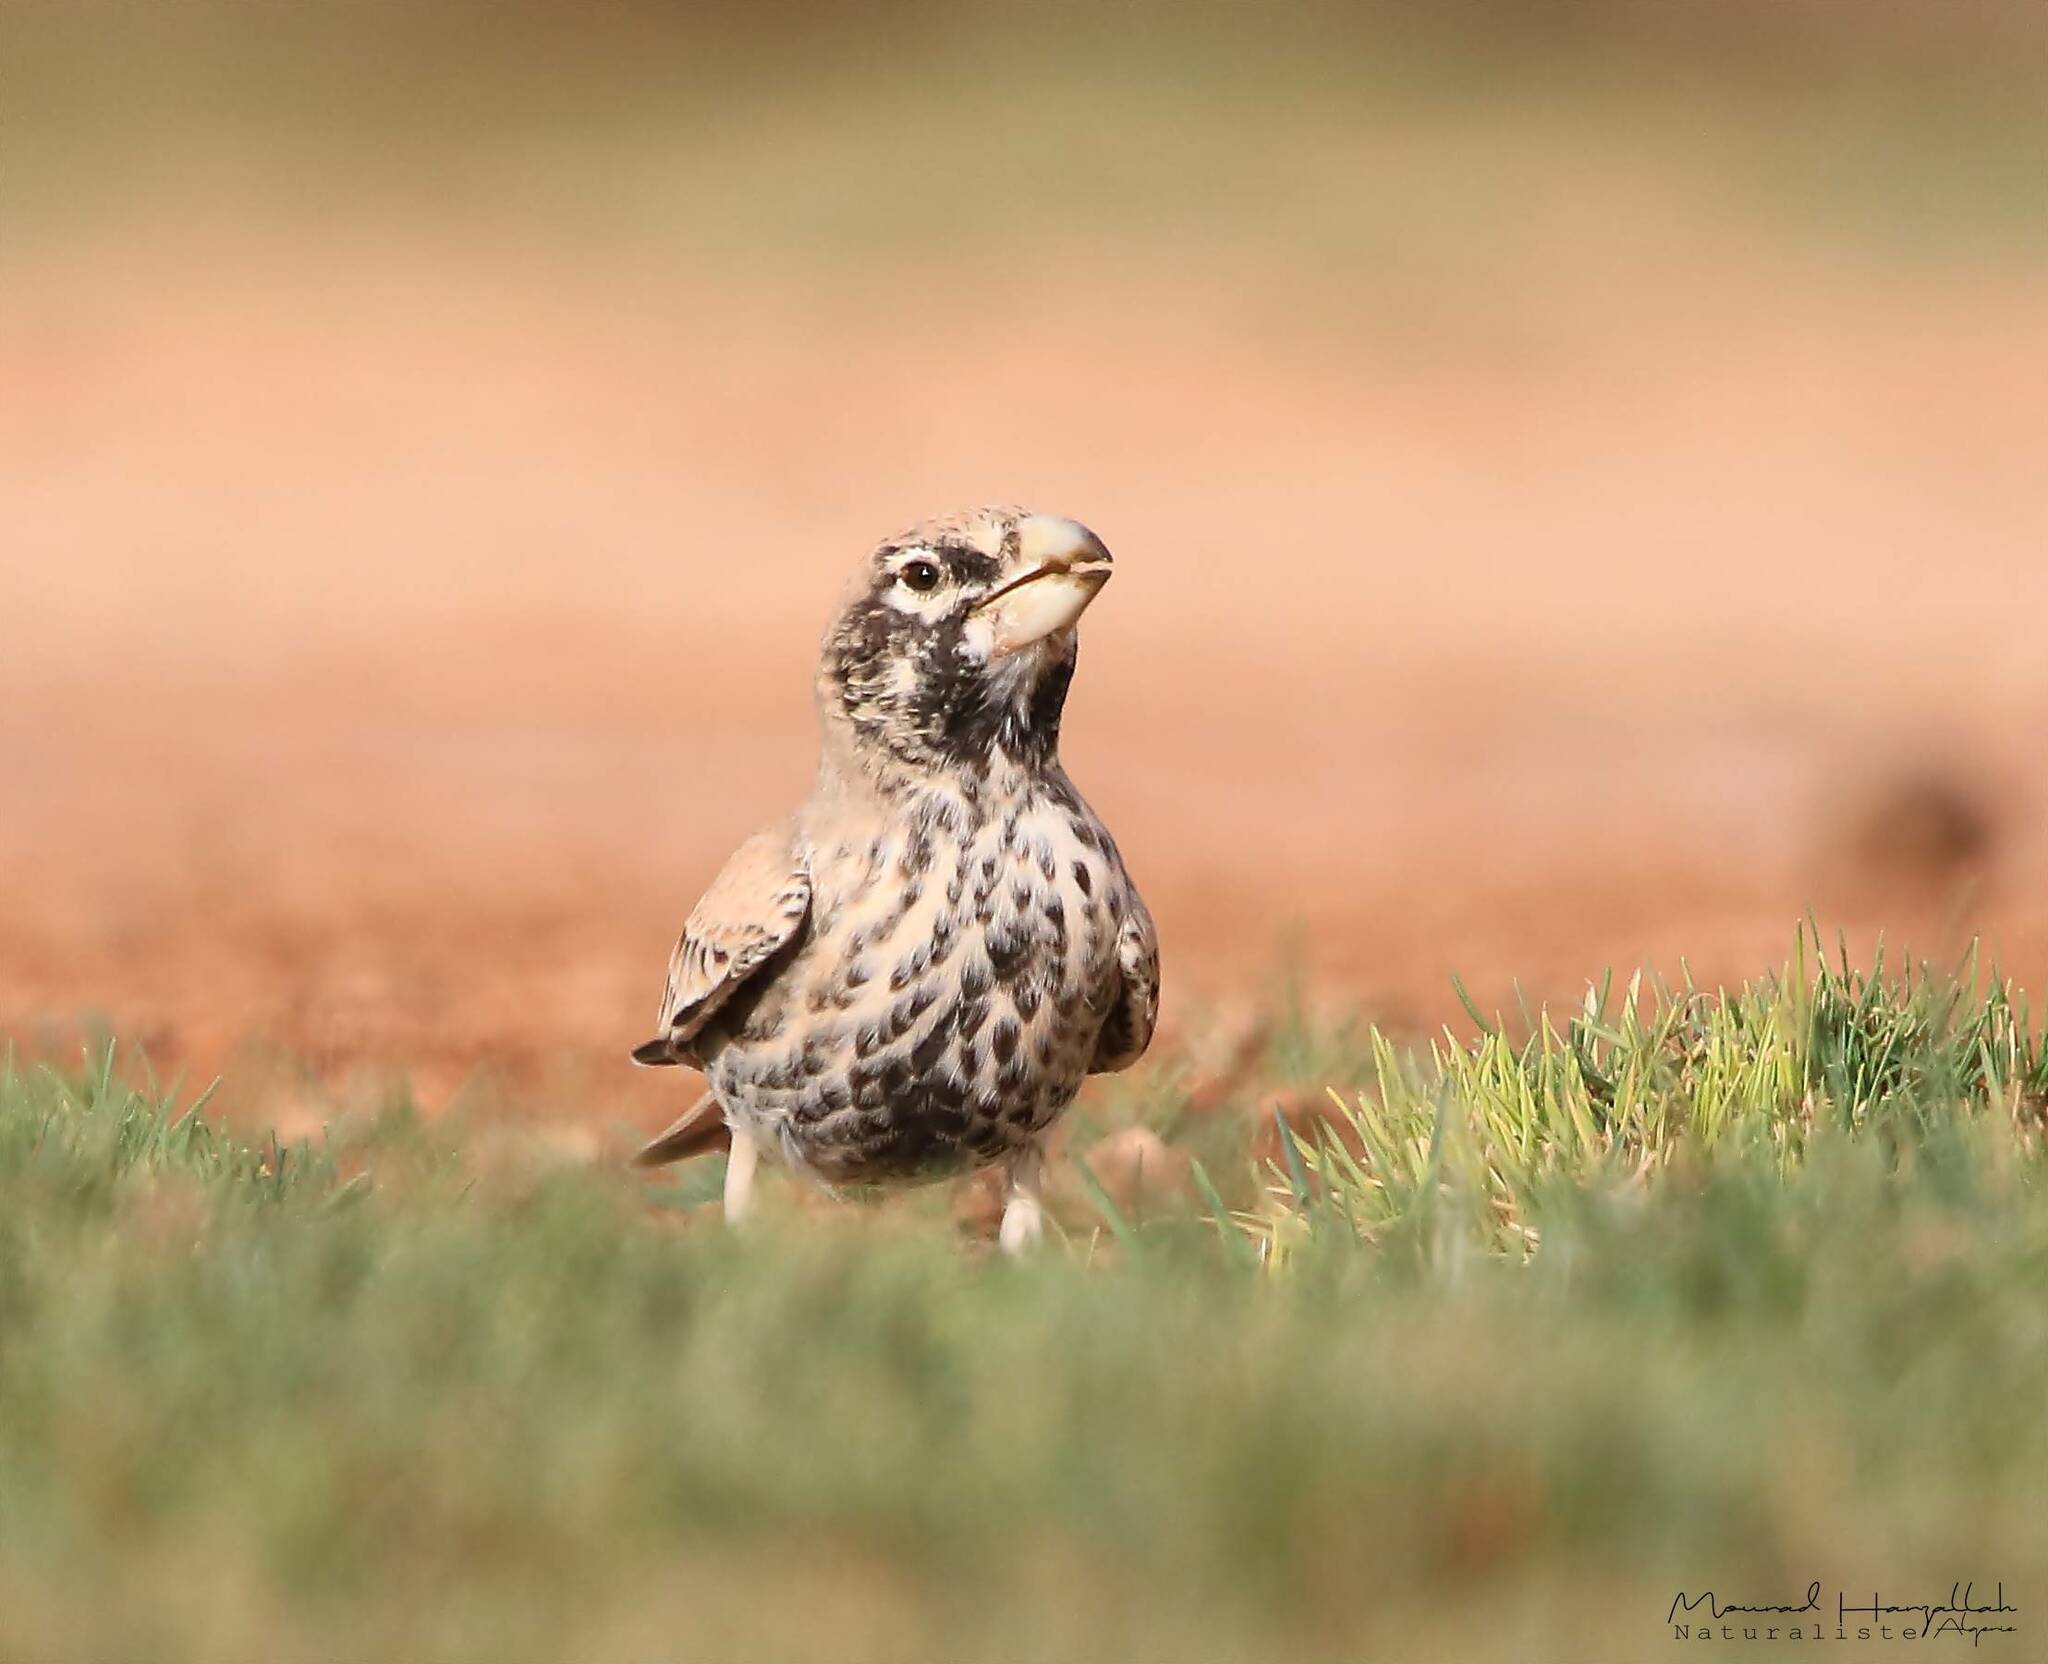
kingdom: Animalia
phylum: Chordata
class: Aves
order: Passeriformes
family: Alaudidae
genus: Ramphocoris
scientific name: Ramphocoris clotbey
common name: Thick-billed lark
